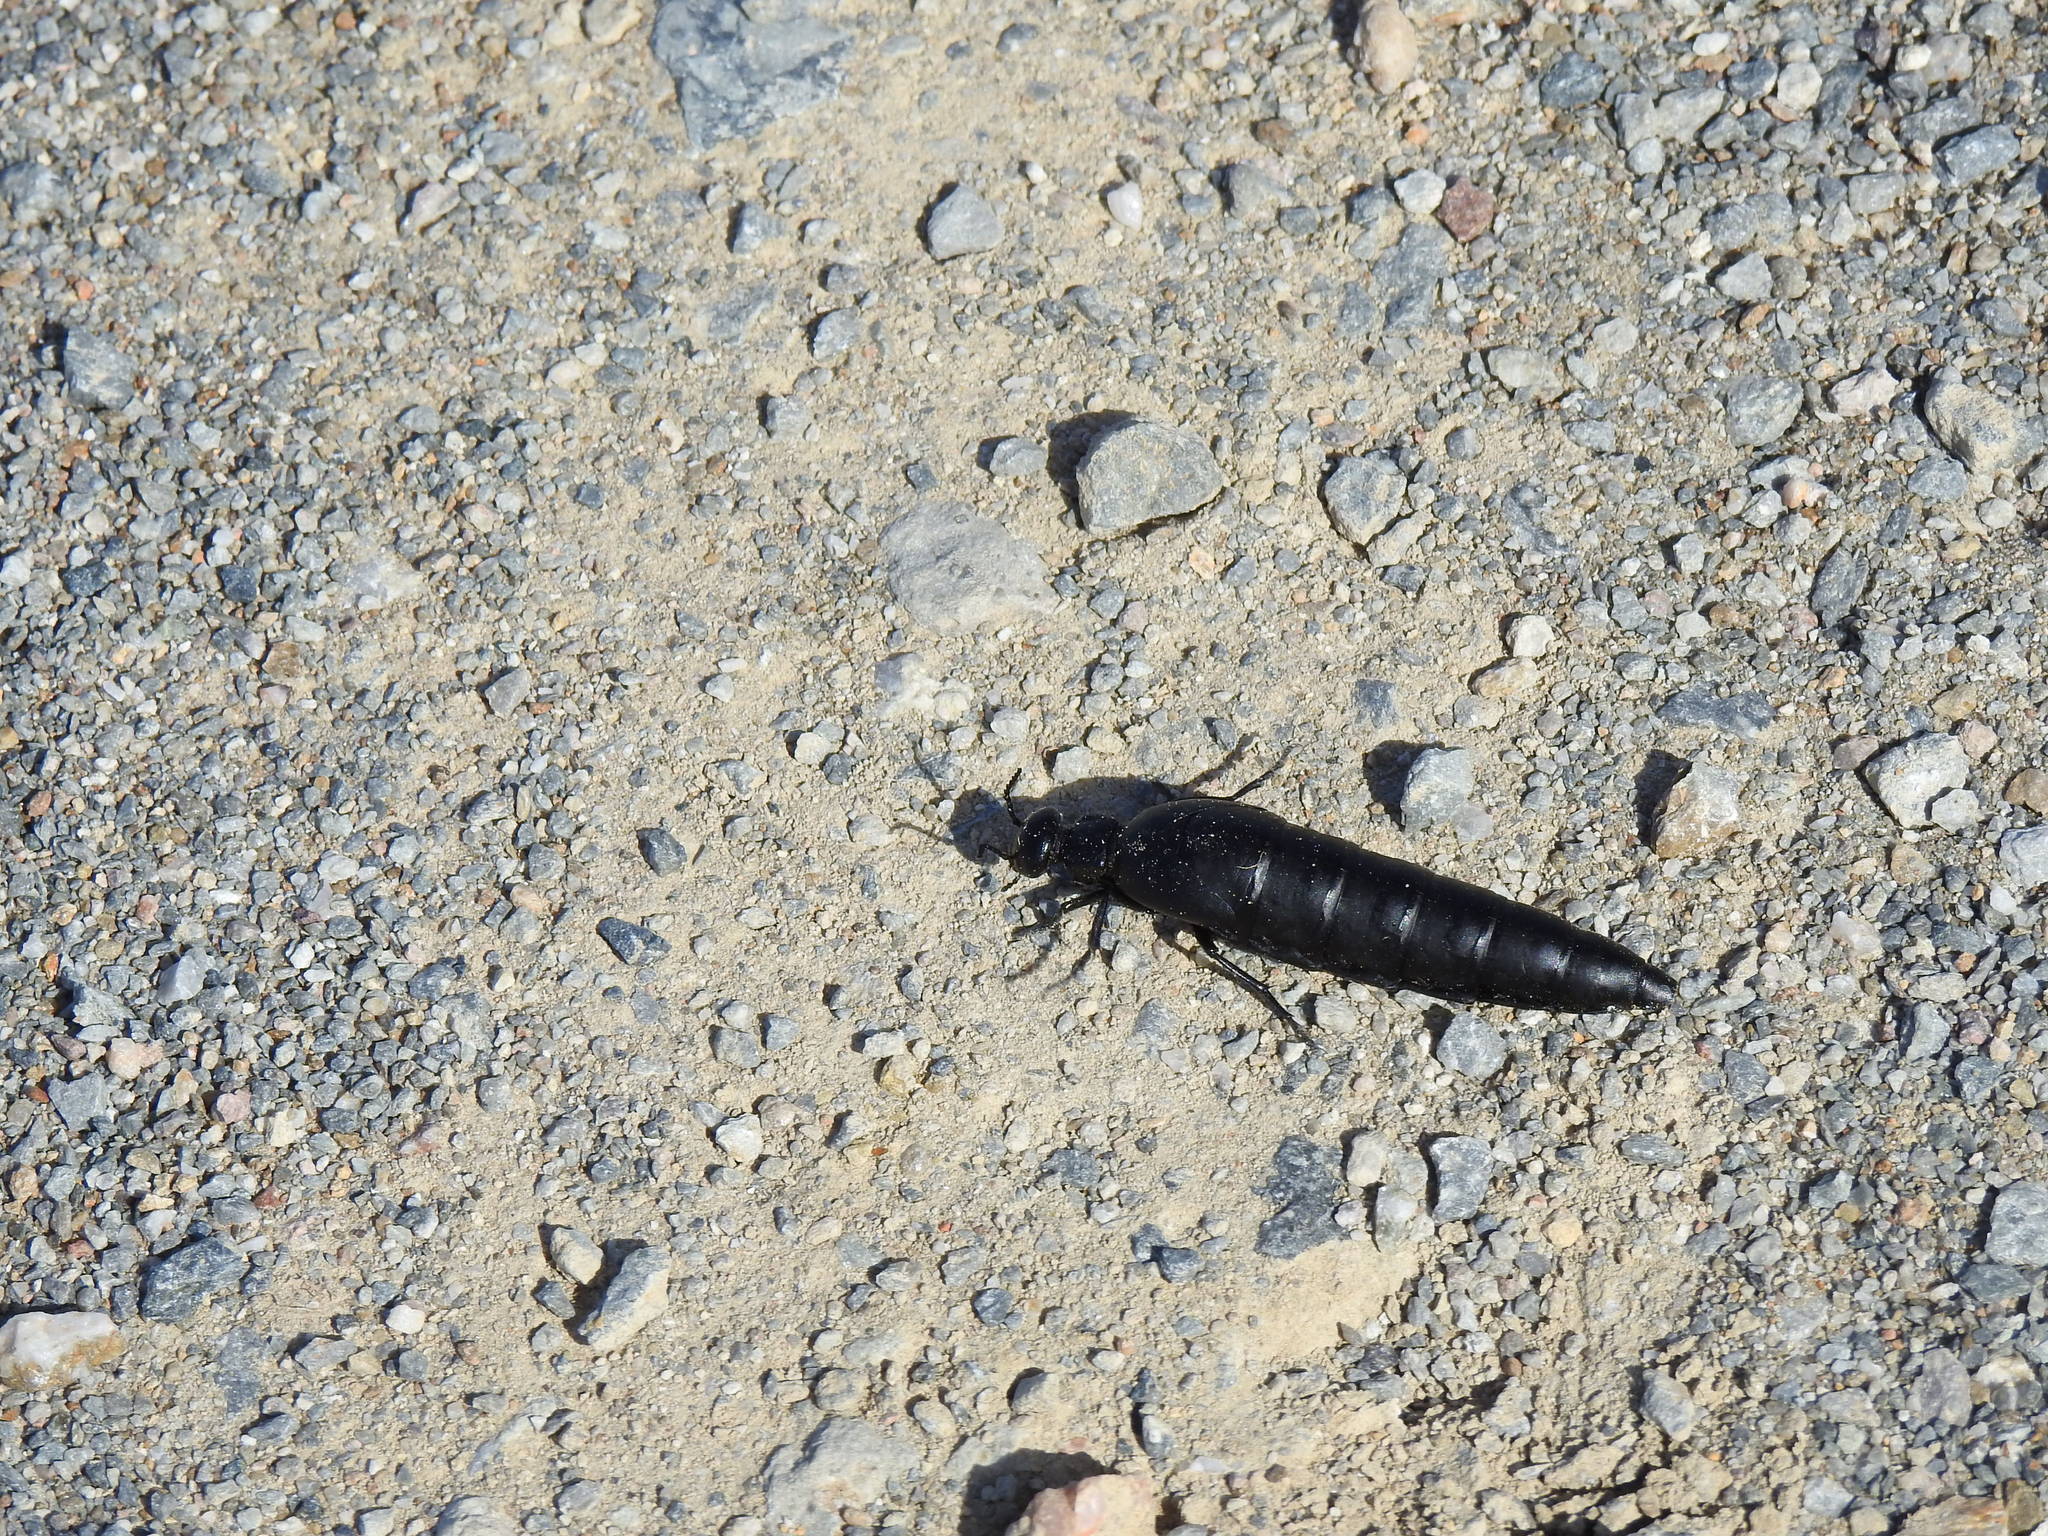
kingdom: Animalia
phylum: Arthropoda
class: Insecta
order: Coleoptera
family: Meloidae
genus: Berberomeloe
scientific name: Berberomeloe castuo
